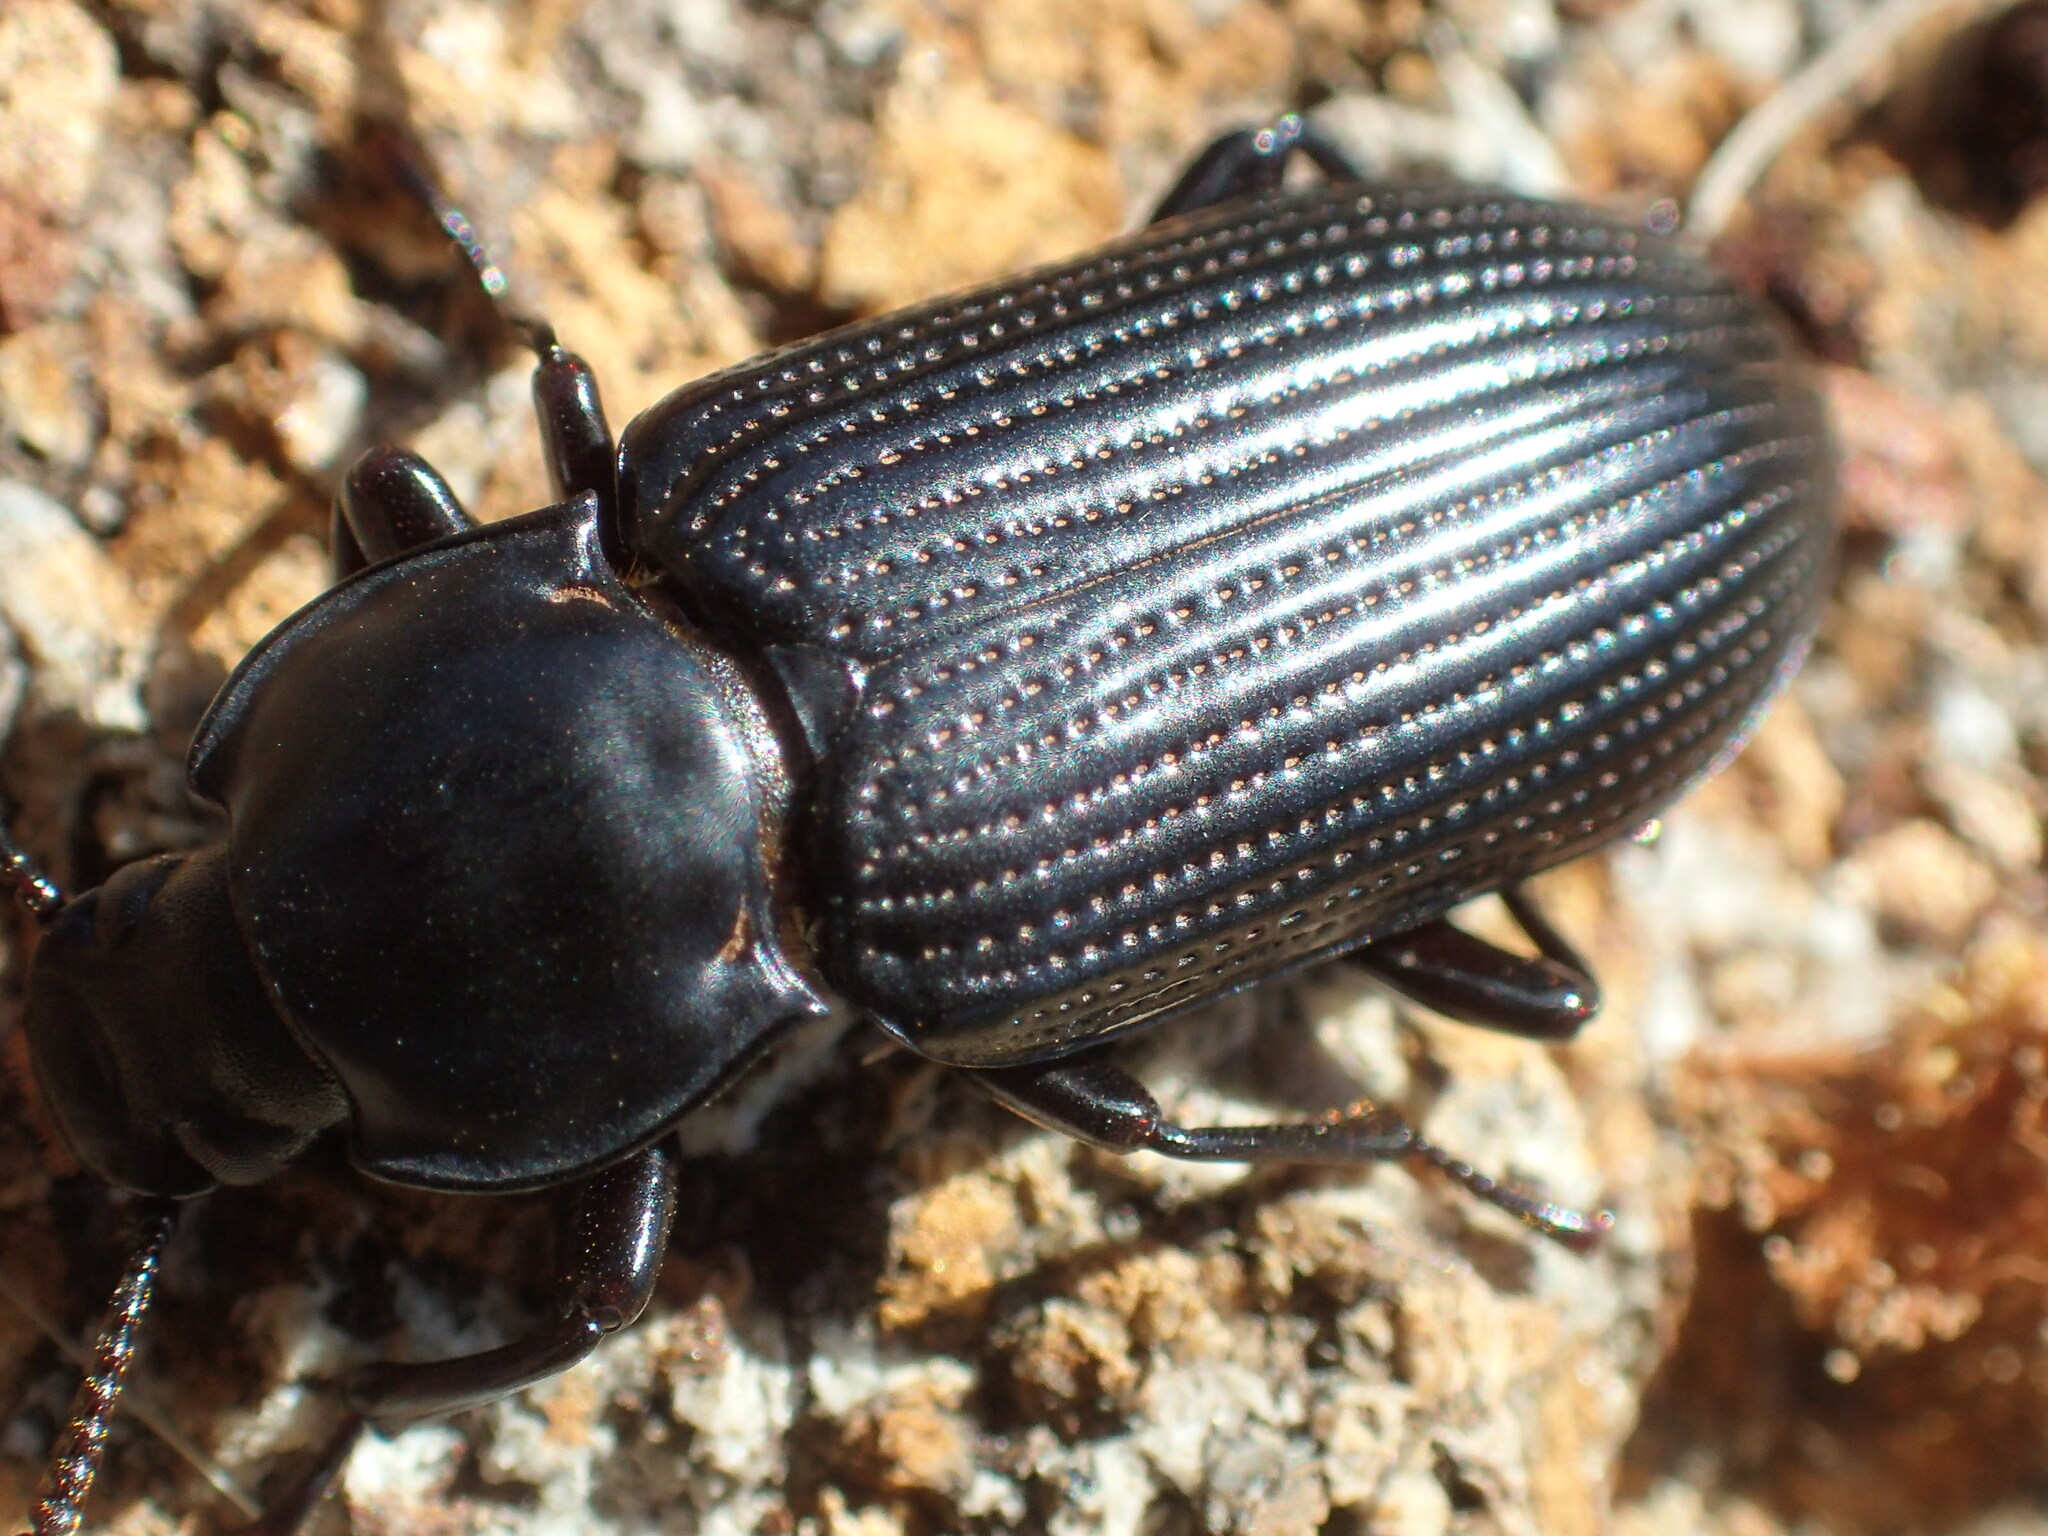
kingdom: Animalia
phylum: Arthropoda
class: Insecta
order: Coleoptera
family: Tenebrionidae
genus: Meneristes
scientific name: Meneristes australis
